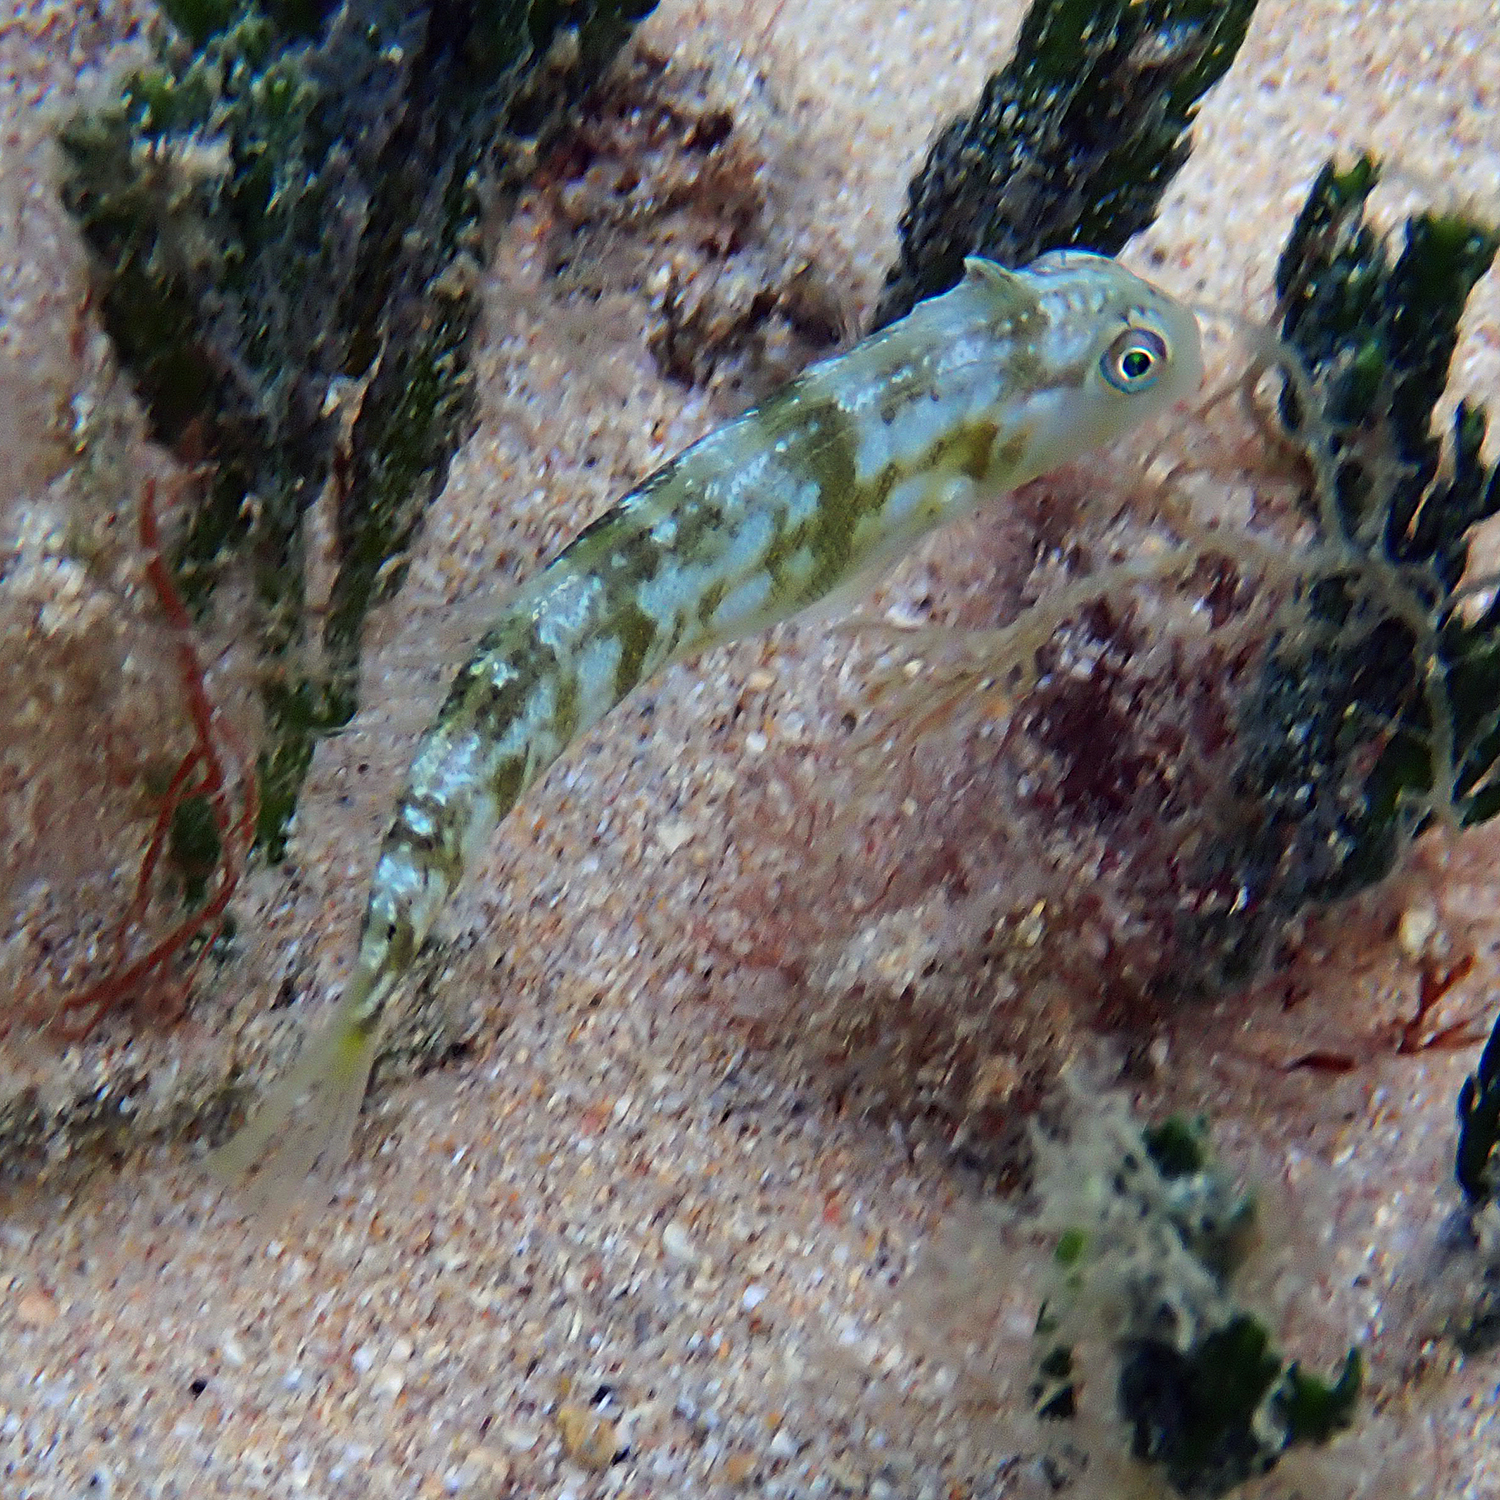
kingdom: Animalia
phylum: Chordata
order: Perciformes
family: Labridae
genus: Cymolutes
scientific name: Cymolutes praetextatus
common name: Knife razorfish
